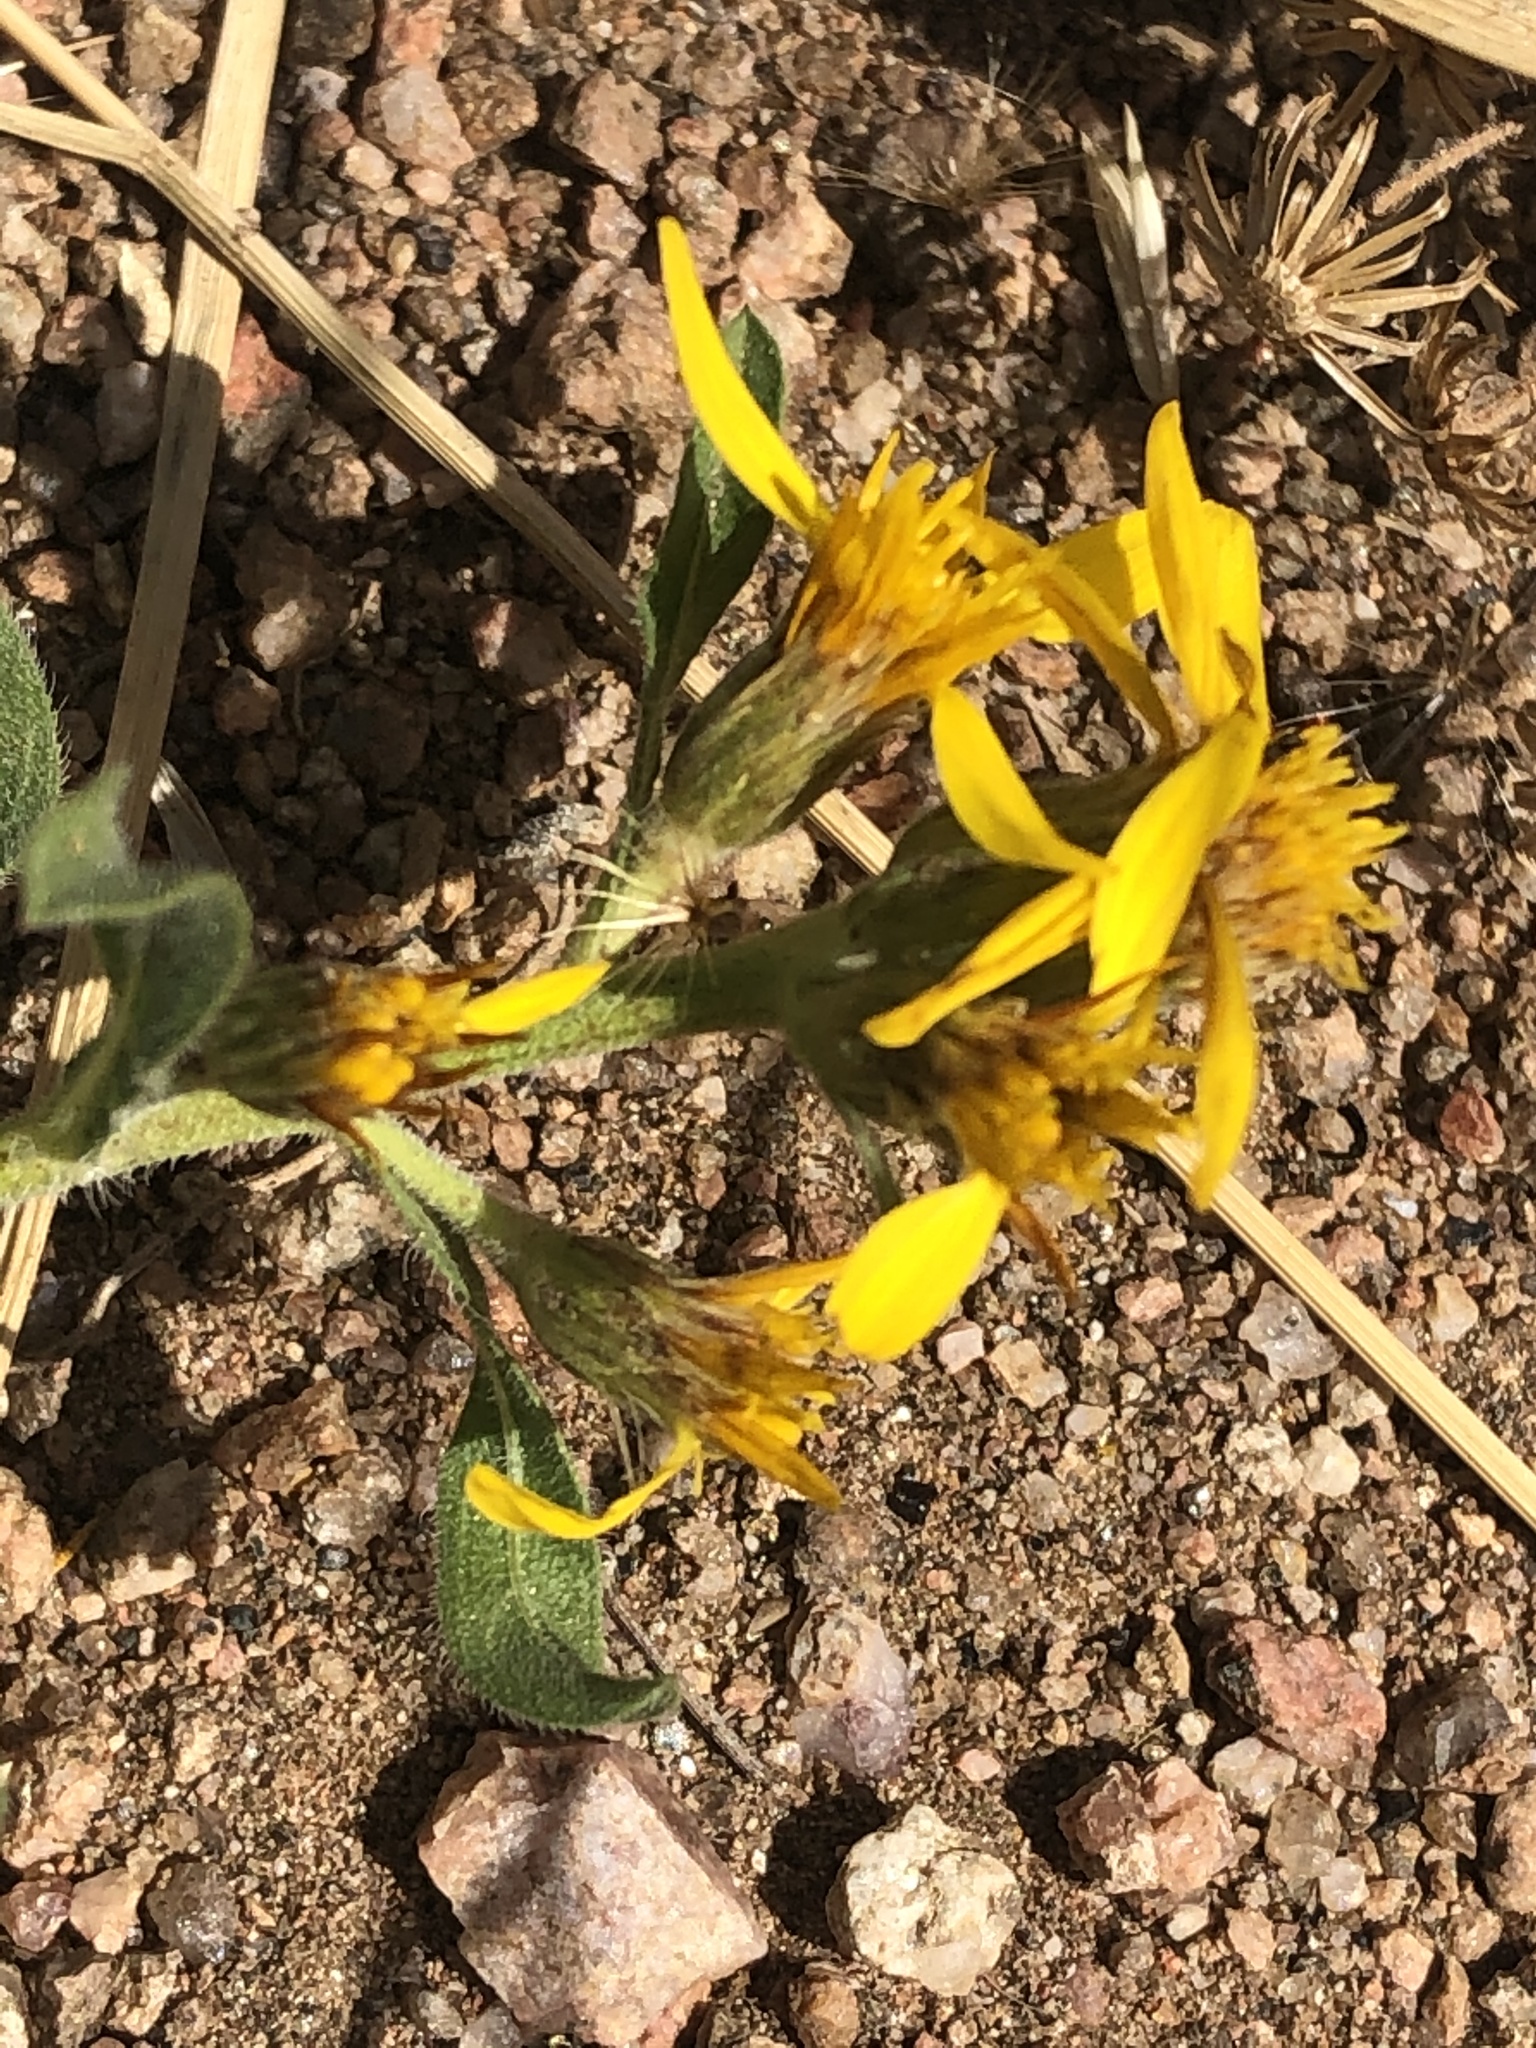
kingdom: Plantae
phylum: Tracheophyta
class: Magnoliopsida
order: Asterales
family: Asteraceae
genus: Heterotheca
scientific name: Heterotheca villosa
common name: Hairy false goldenaster
